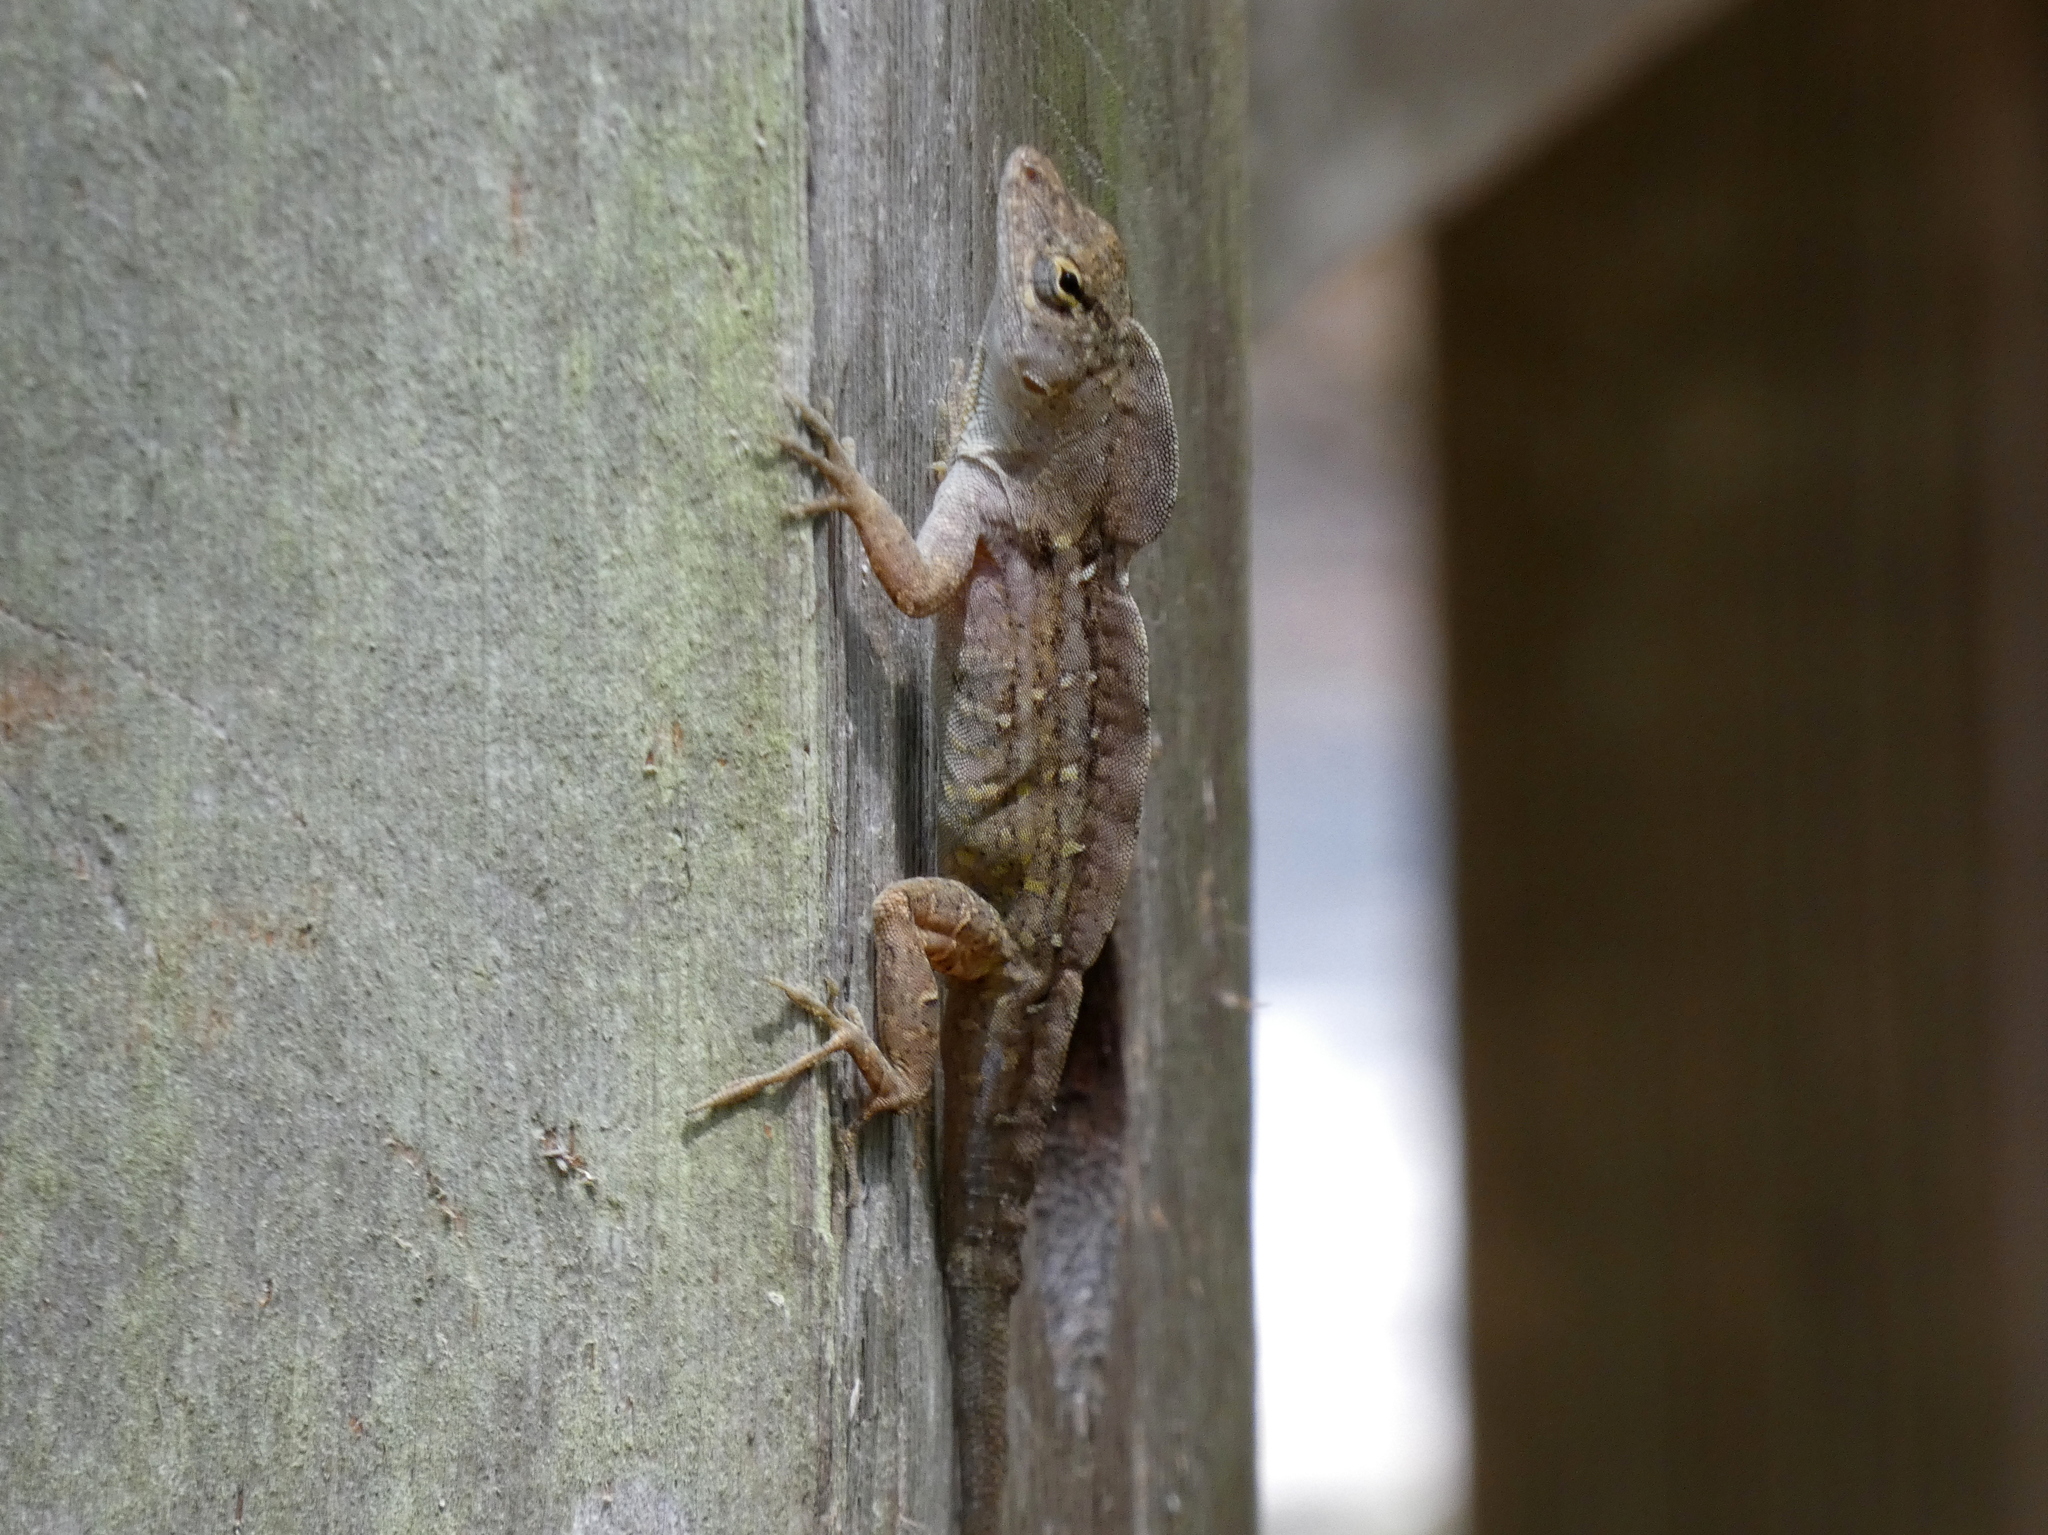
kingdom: Animalia
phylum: Chordata
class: Squamata
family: Dactyloidae
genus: Anolis
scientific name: Anolis sagrei
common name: Brown anole
